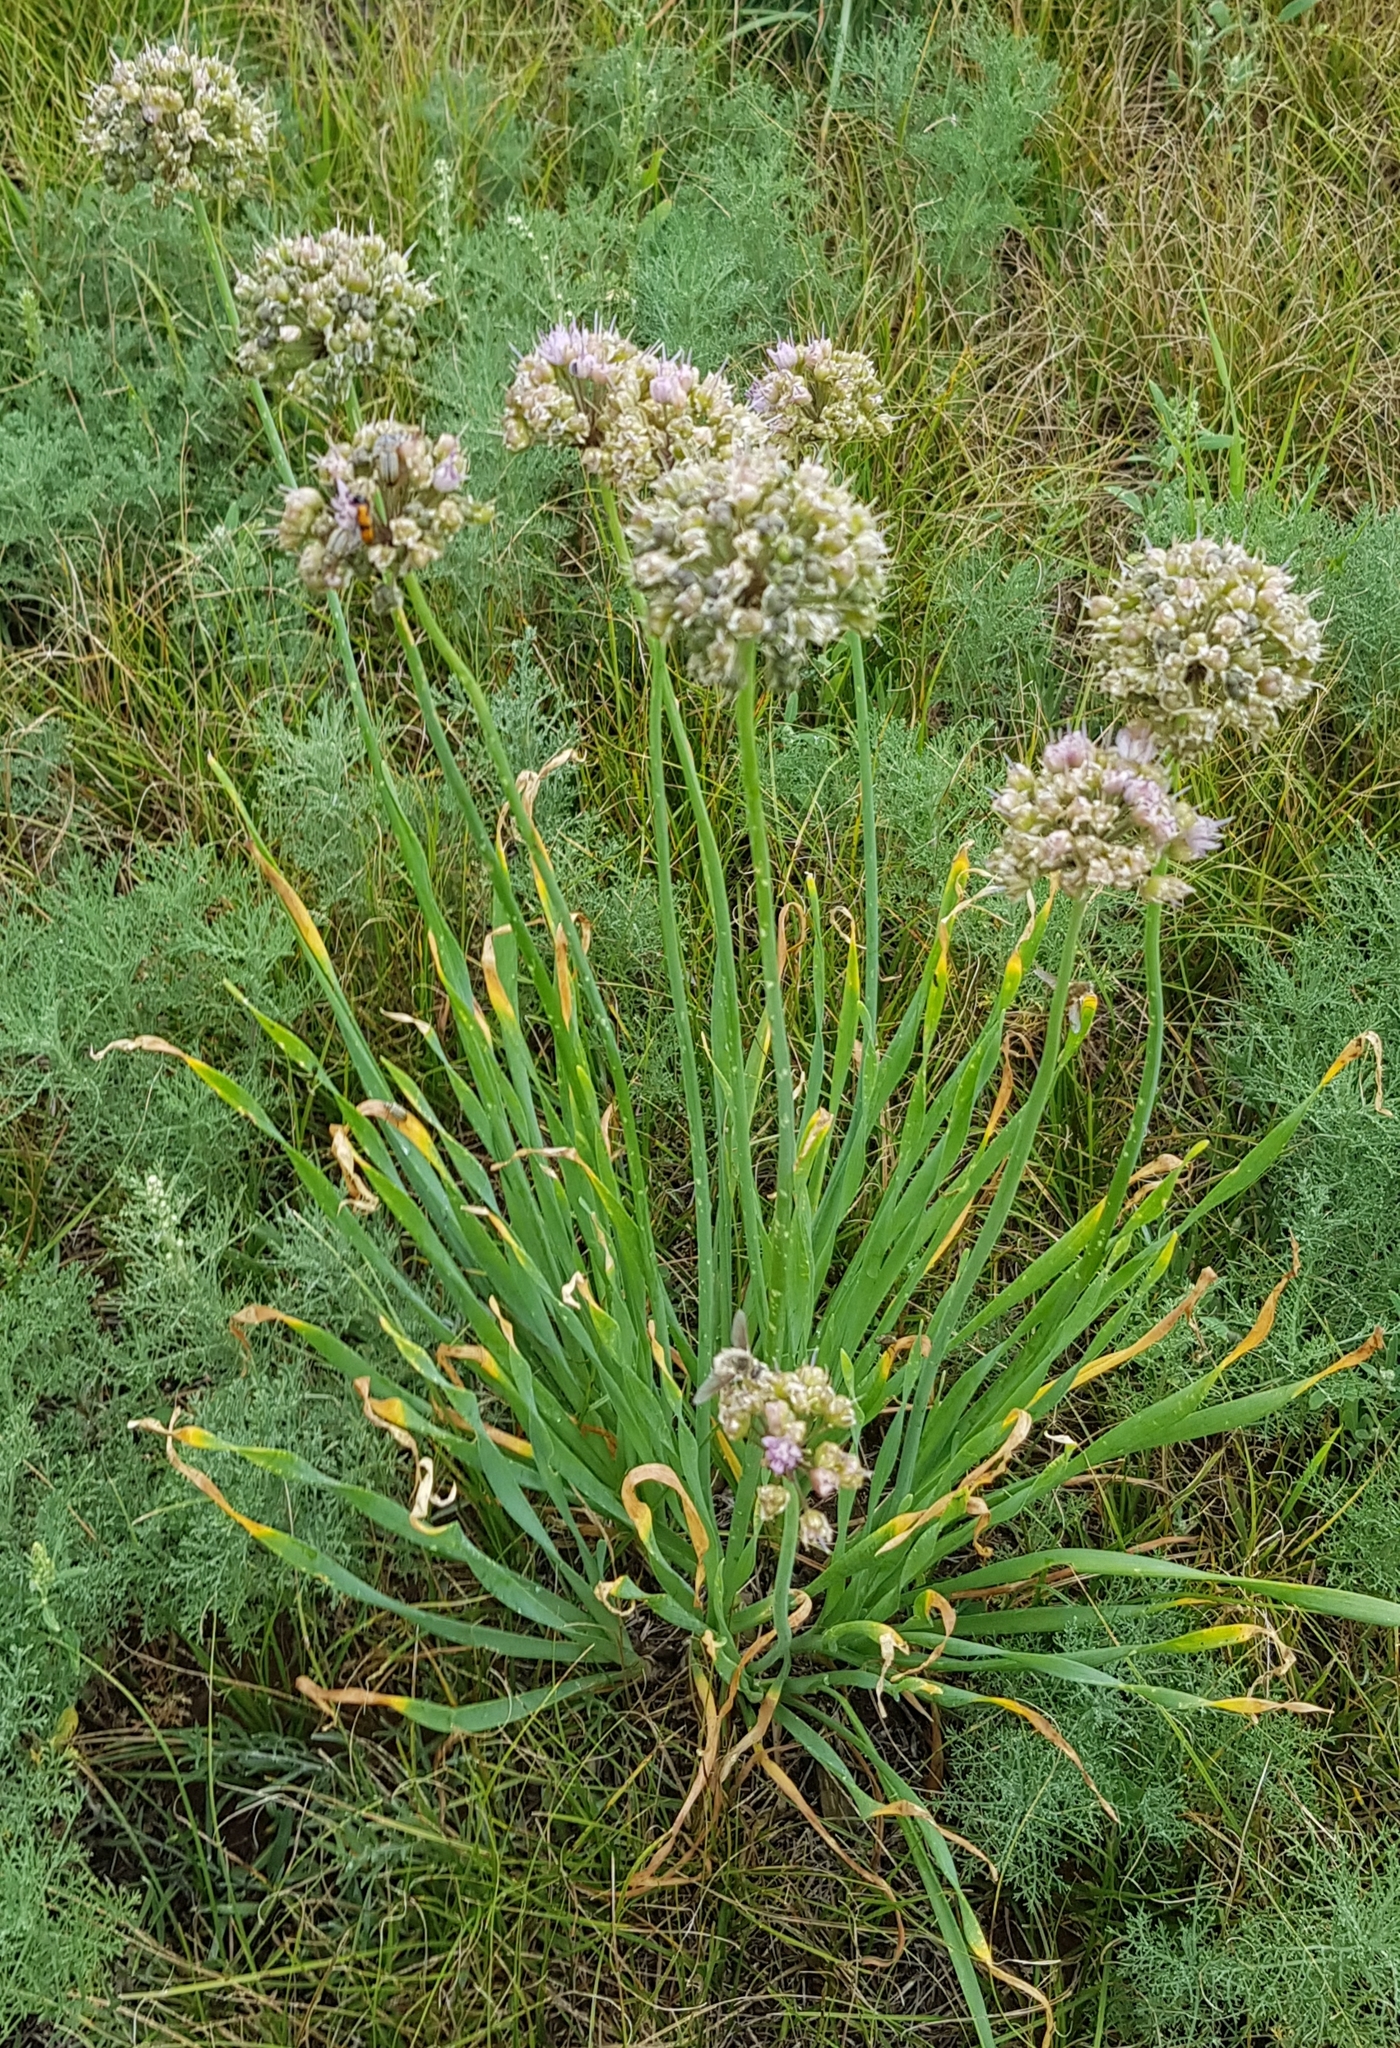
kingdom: Plantae
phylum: Tracheophyta
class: Liliopsida
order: Asparagales
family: Amaryllidaceae
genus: Allium
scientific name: Allium senescens
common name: German garlic
